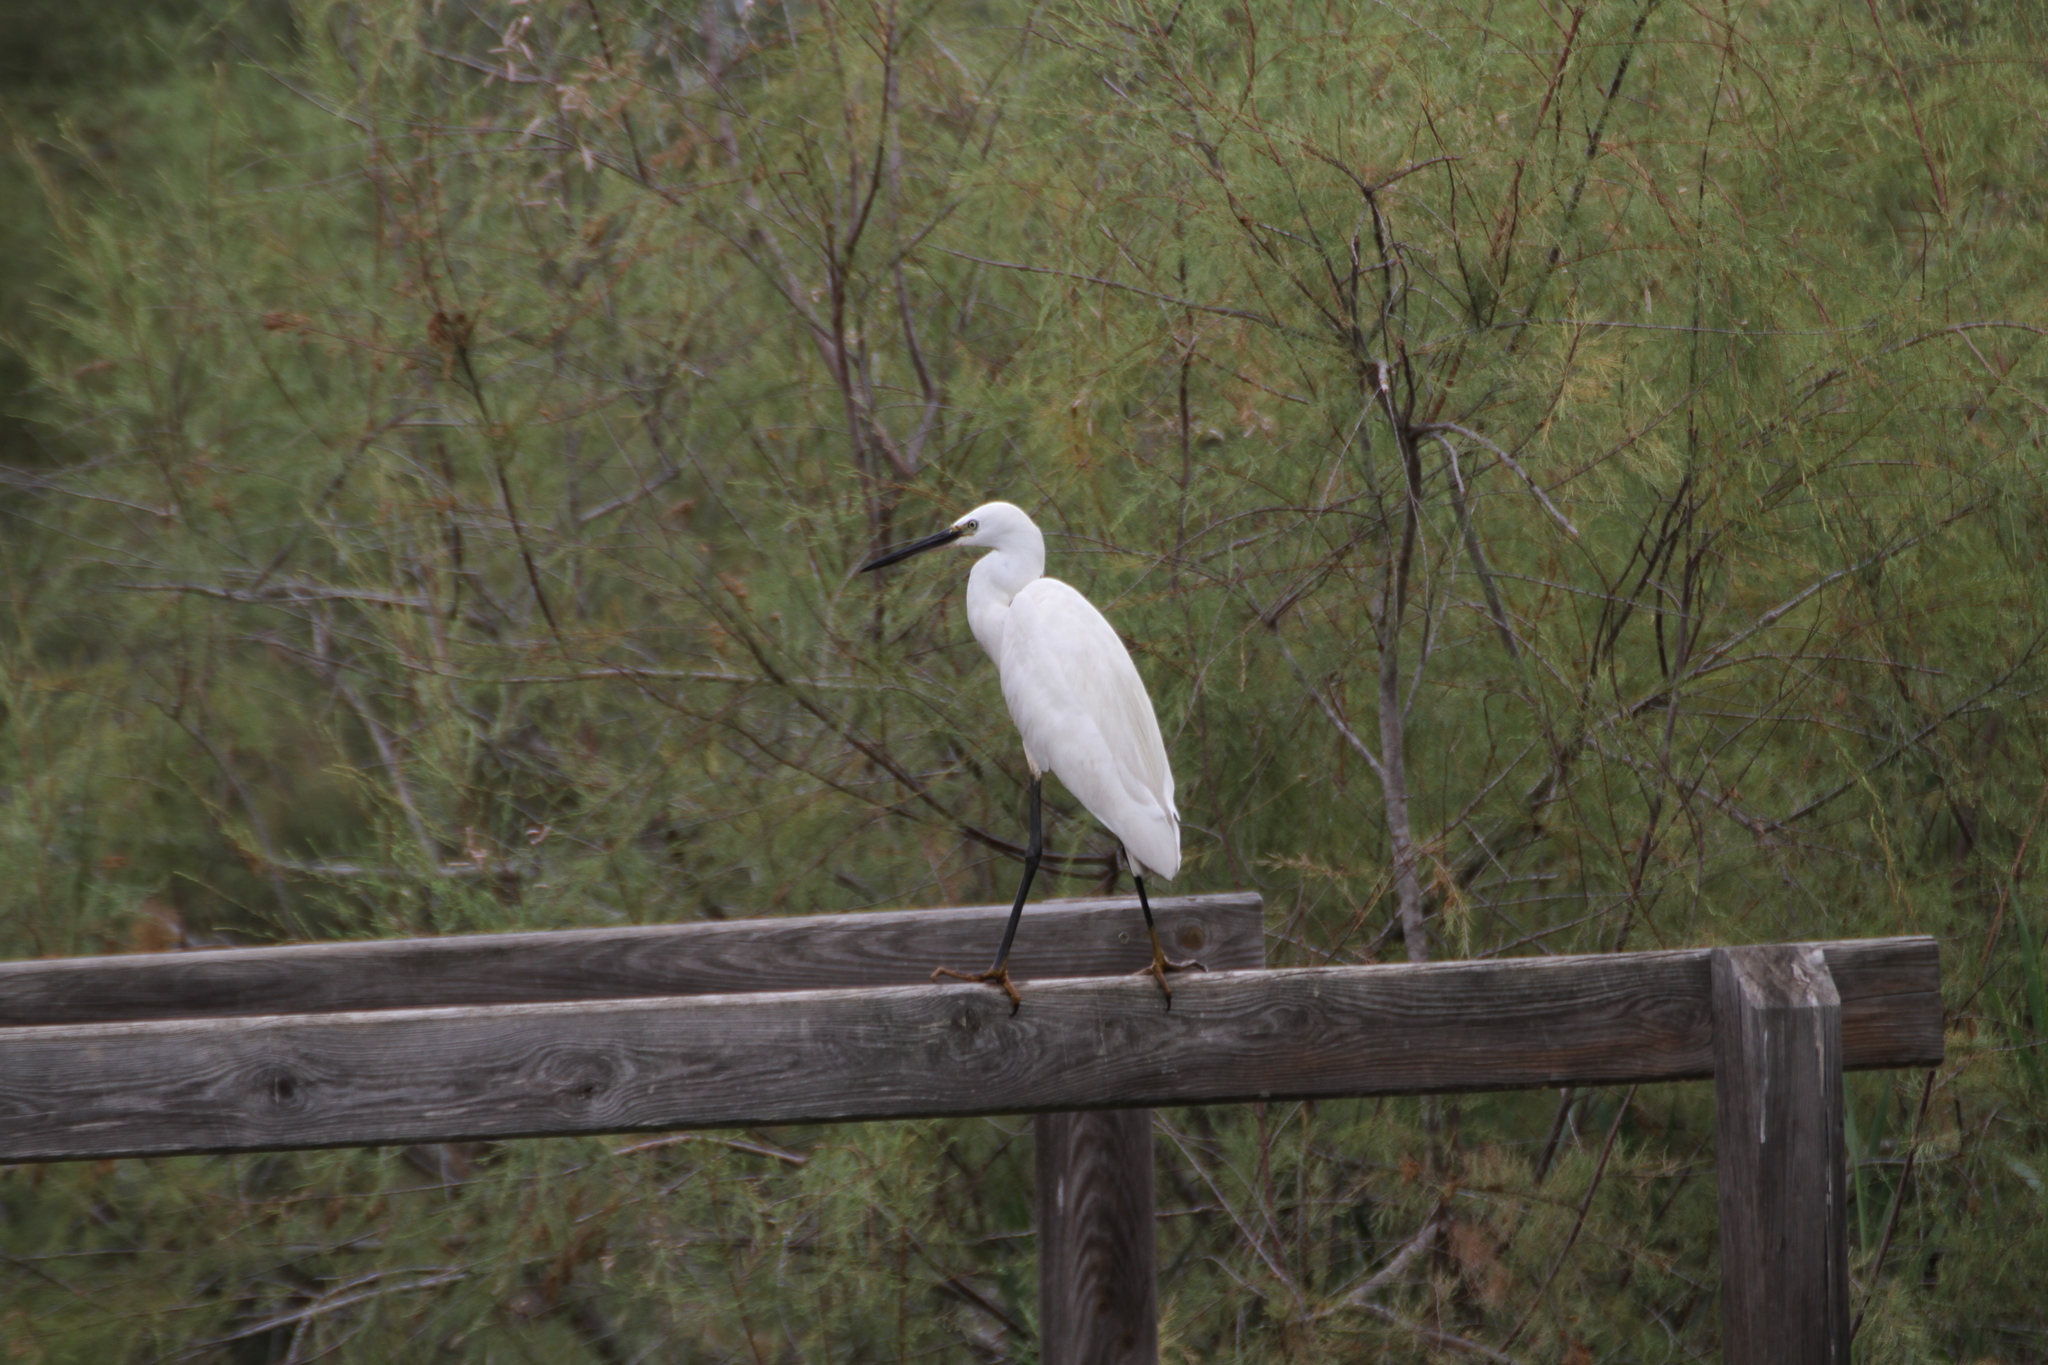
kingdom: Animalia
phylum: Chordata
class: Aves
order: Pelecaniformes
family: Ardeidae
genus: Egretta
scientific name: Egretta garzetta
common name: Little egret
